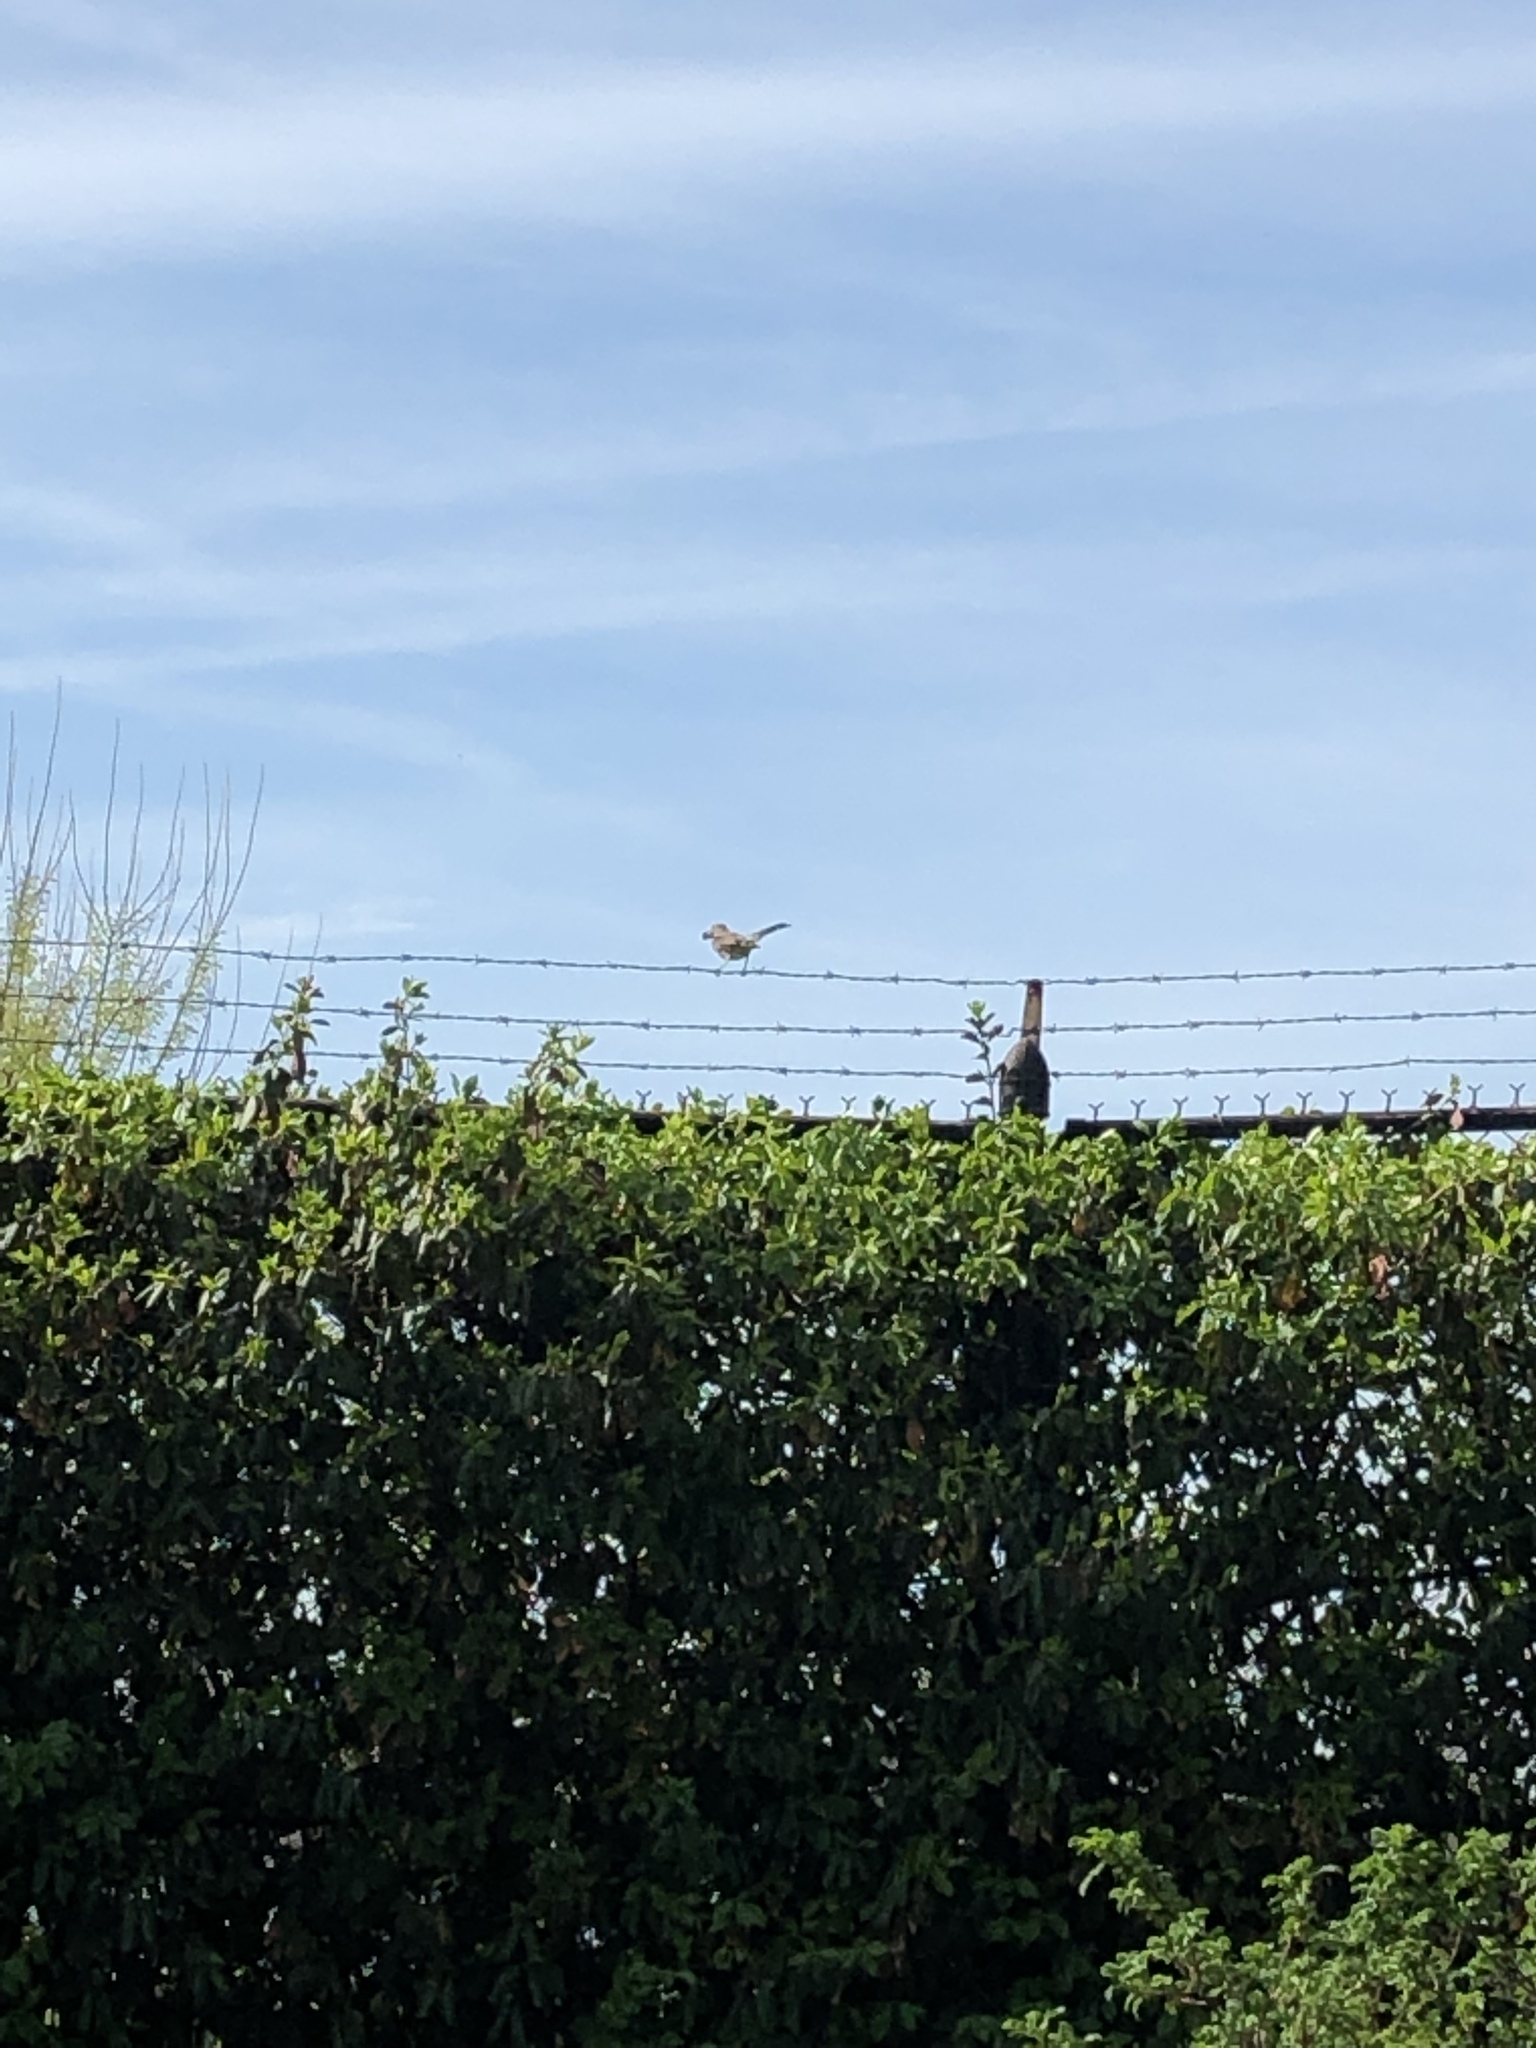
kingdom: Animalia
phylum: Chordata
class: Aves
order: Passeriformes
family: Mimidae
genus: Mimus
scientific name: Mimus polyglottos
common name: Northern mockingbird
